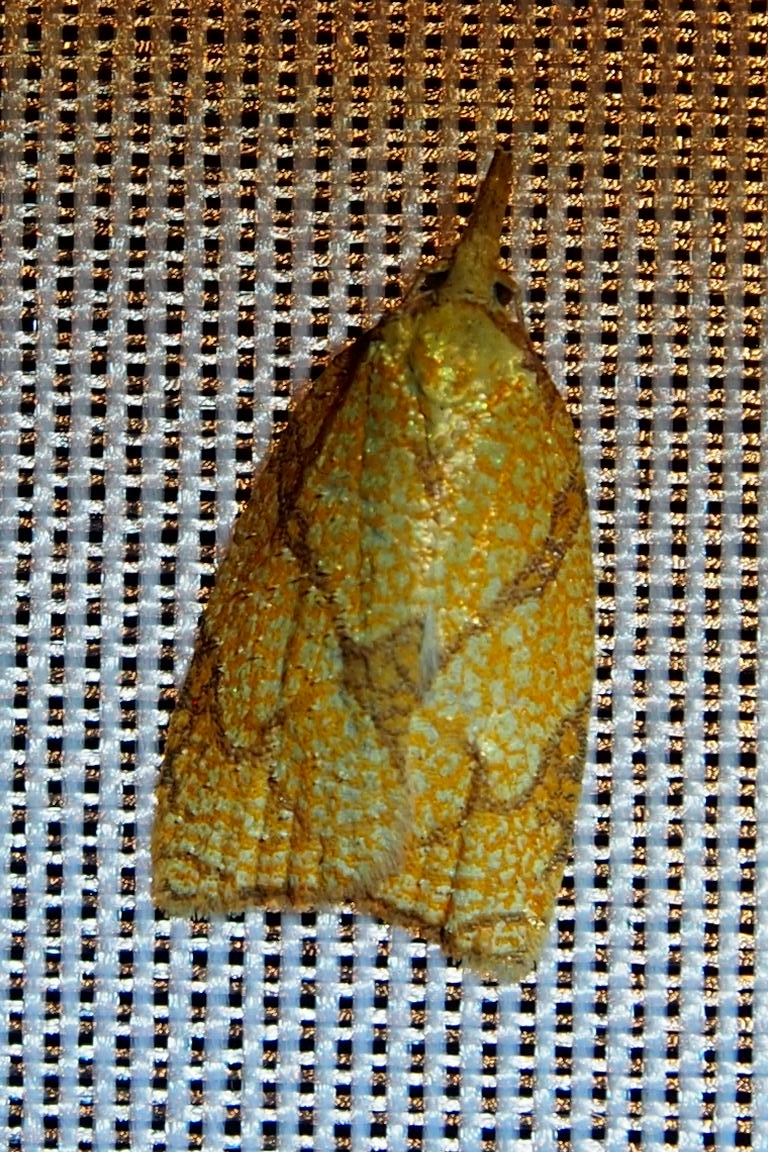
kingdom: Animalia
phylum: Arthropoda
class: Insecta
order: Lepidoptera
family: Tortricidae
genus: Cenopis
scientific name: Cenopis reticulatana
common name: Reticulated fruitworm moth
